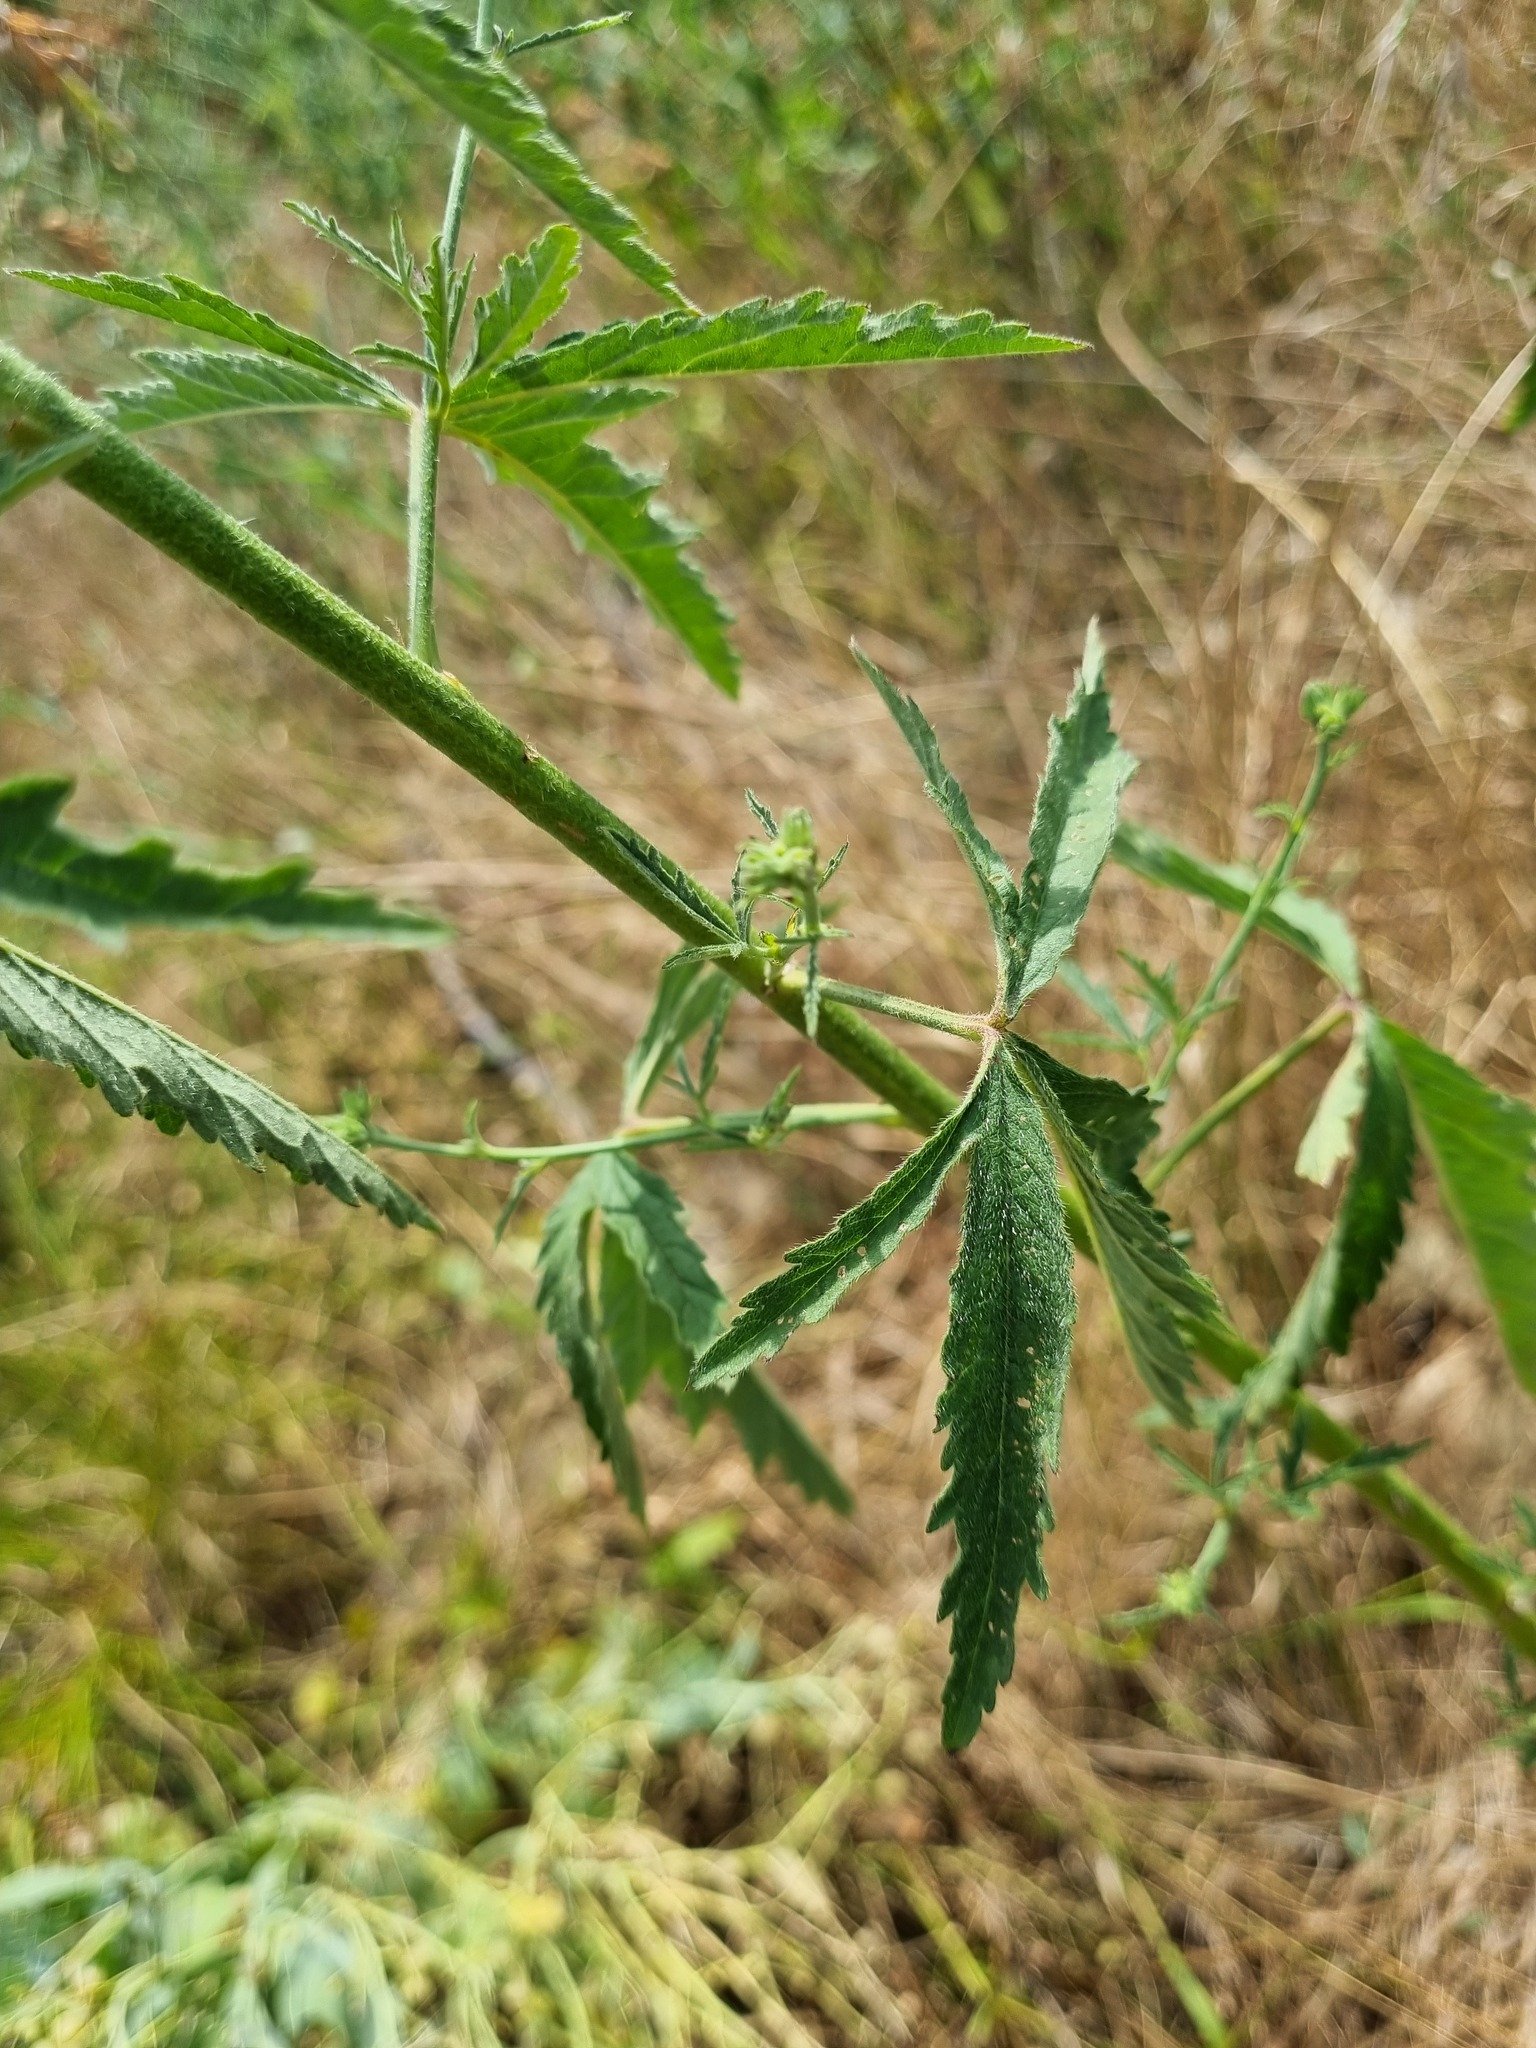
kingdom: Plantae
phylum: Tracheophyta
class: Magnoliopsida
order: Malvales
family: Malvaceae
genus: Althaea
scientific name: Althaea cannabina
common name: Palm-leaf marshmallow
